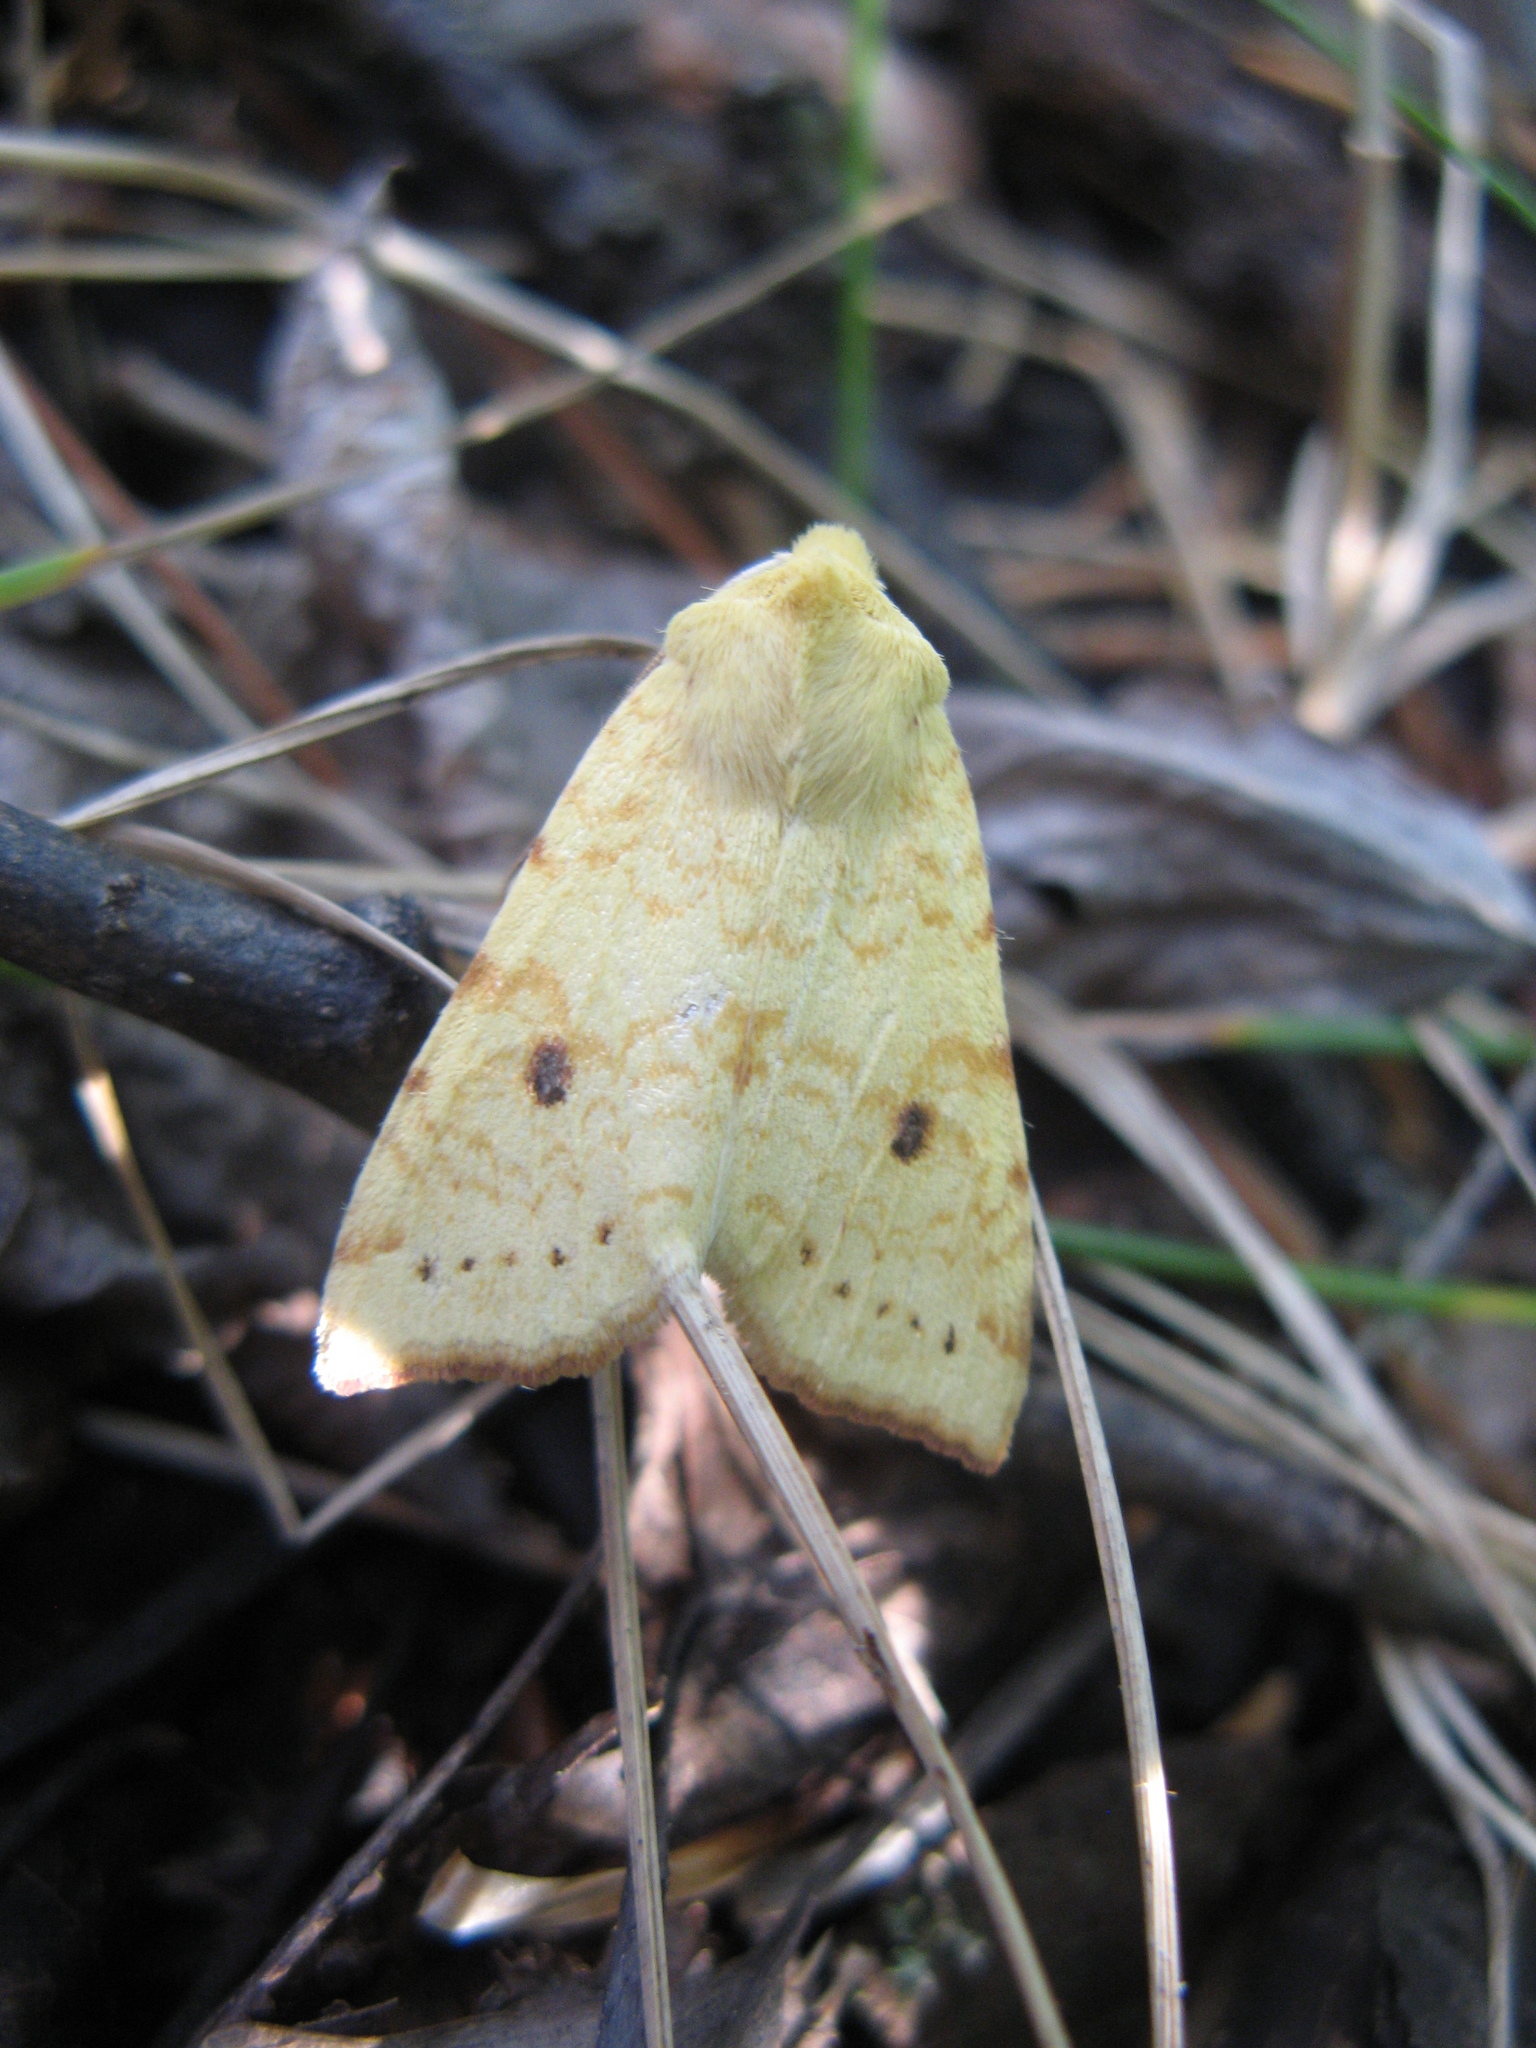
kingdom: Animalia
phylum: Arthropoda
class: Insecta
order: Lepidoptera
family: Noctuidae
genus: Xanthia
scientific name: Xanthia icteritia
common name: The sallow
